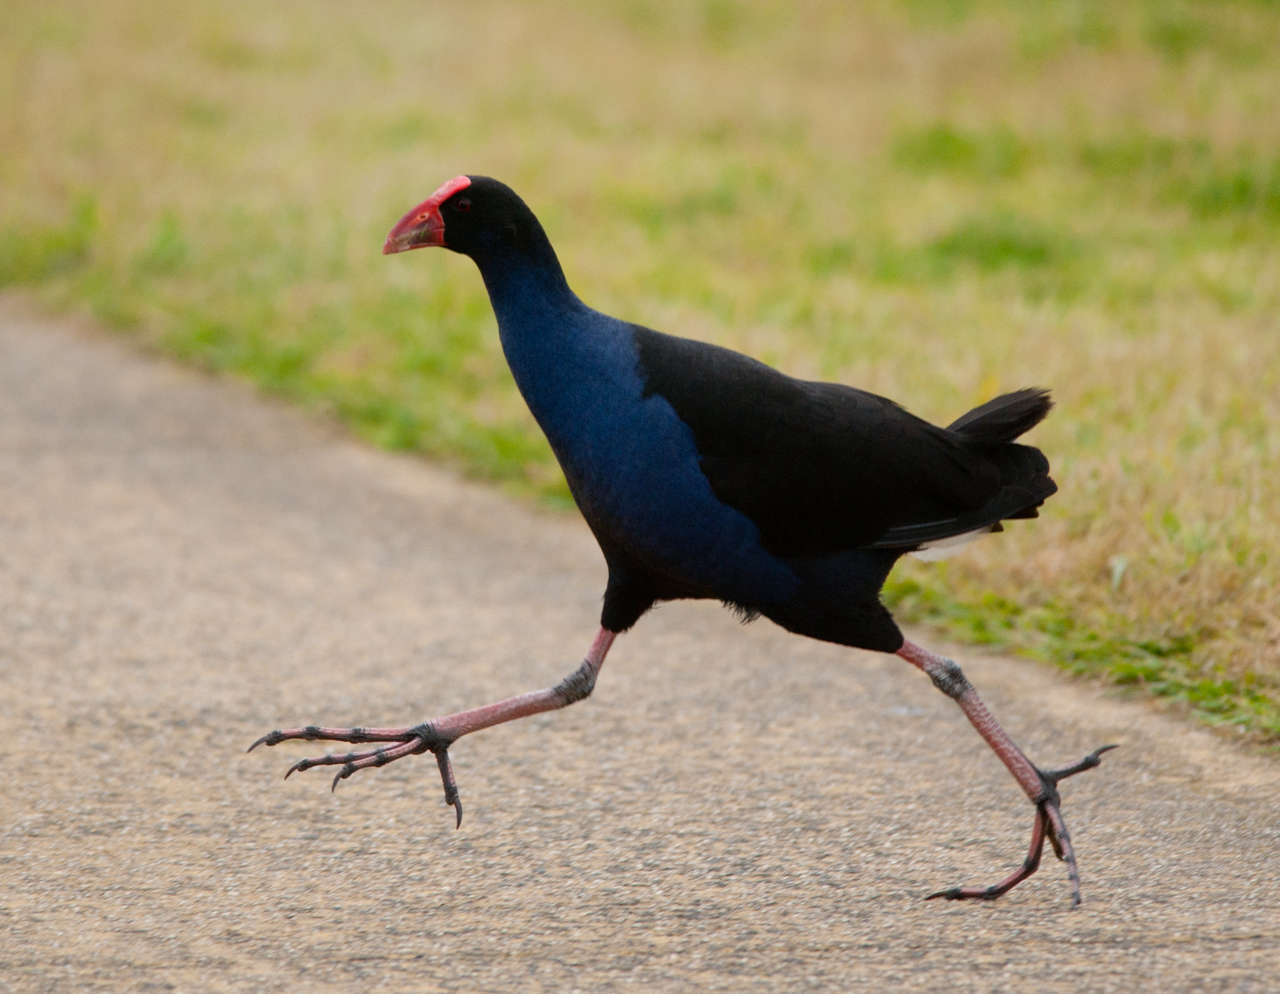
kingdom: Animalia
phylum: Chordata
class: Aves
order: Gruiformes
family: Rallidae
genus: Porphyrio
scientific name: Porphyrio melanotus
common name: Australasian swamphen
